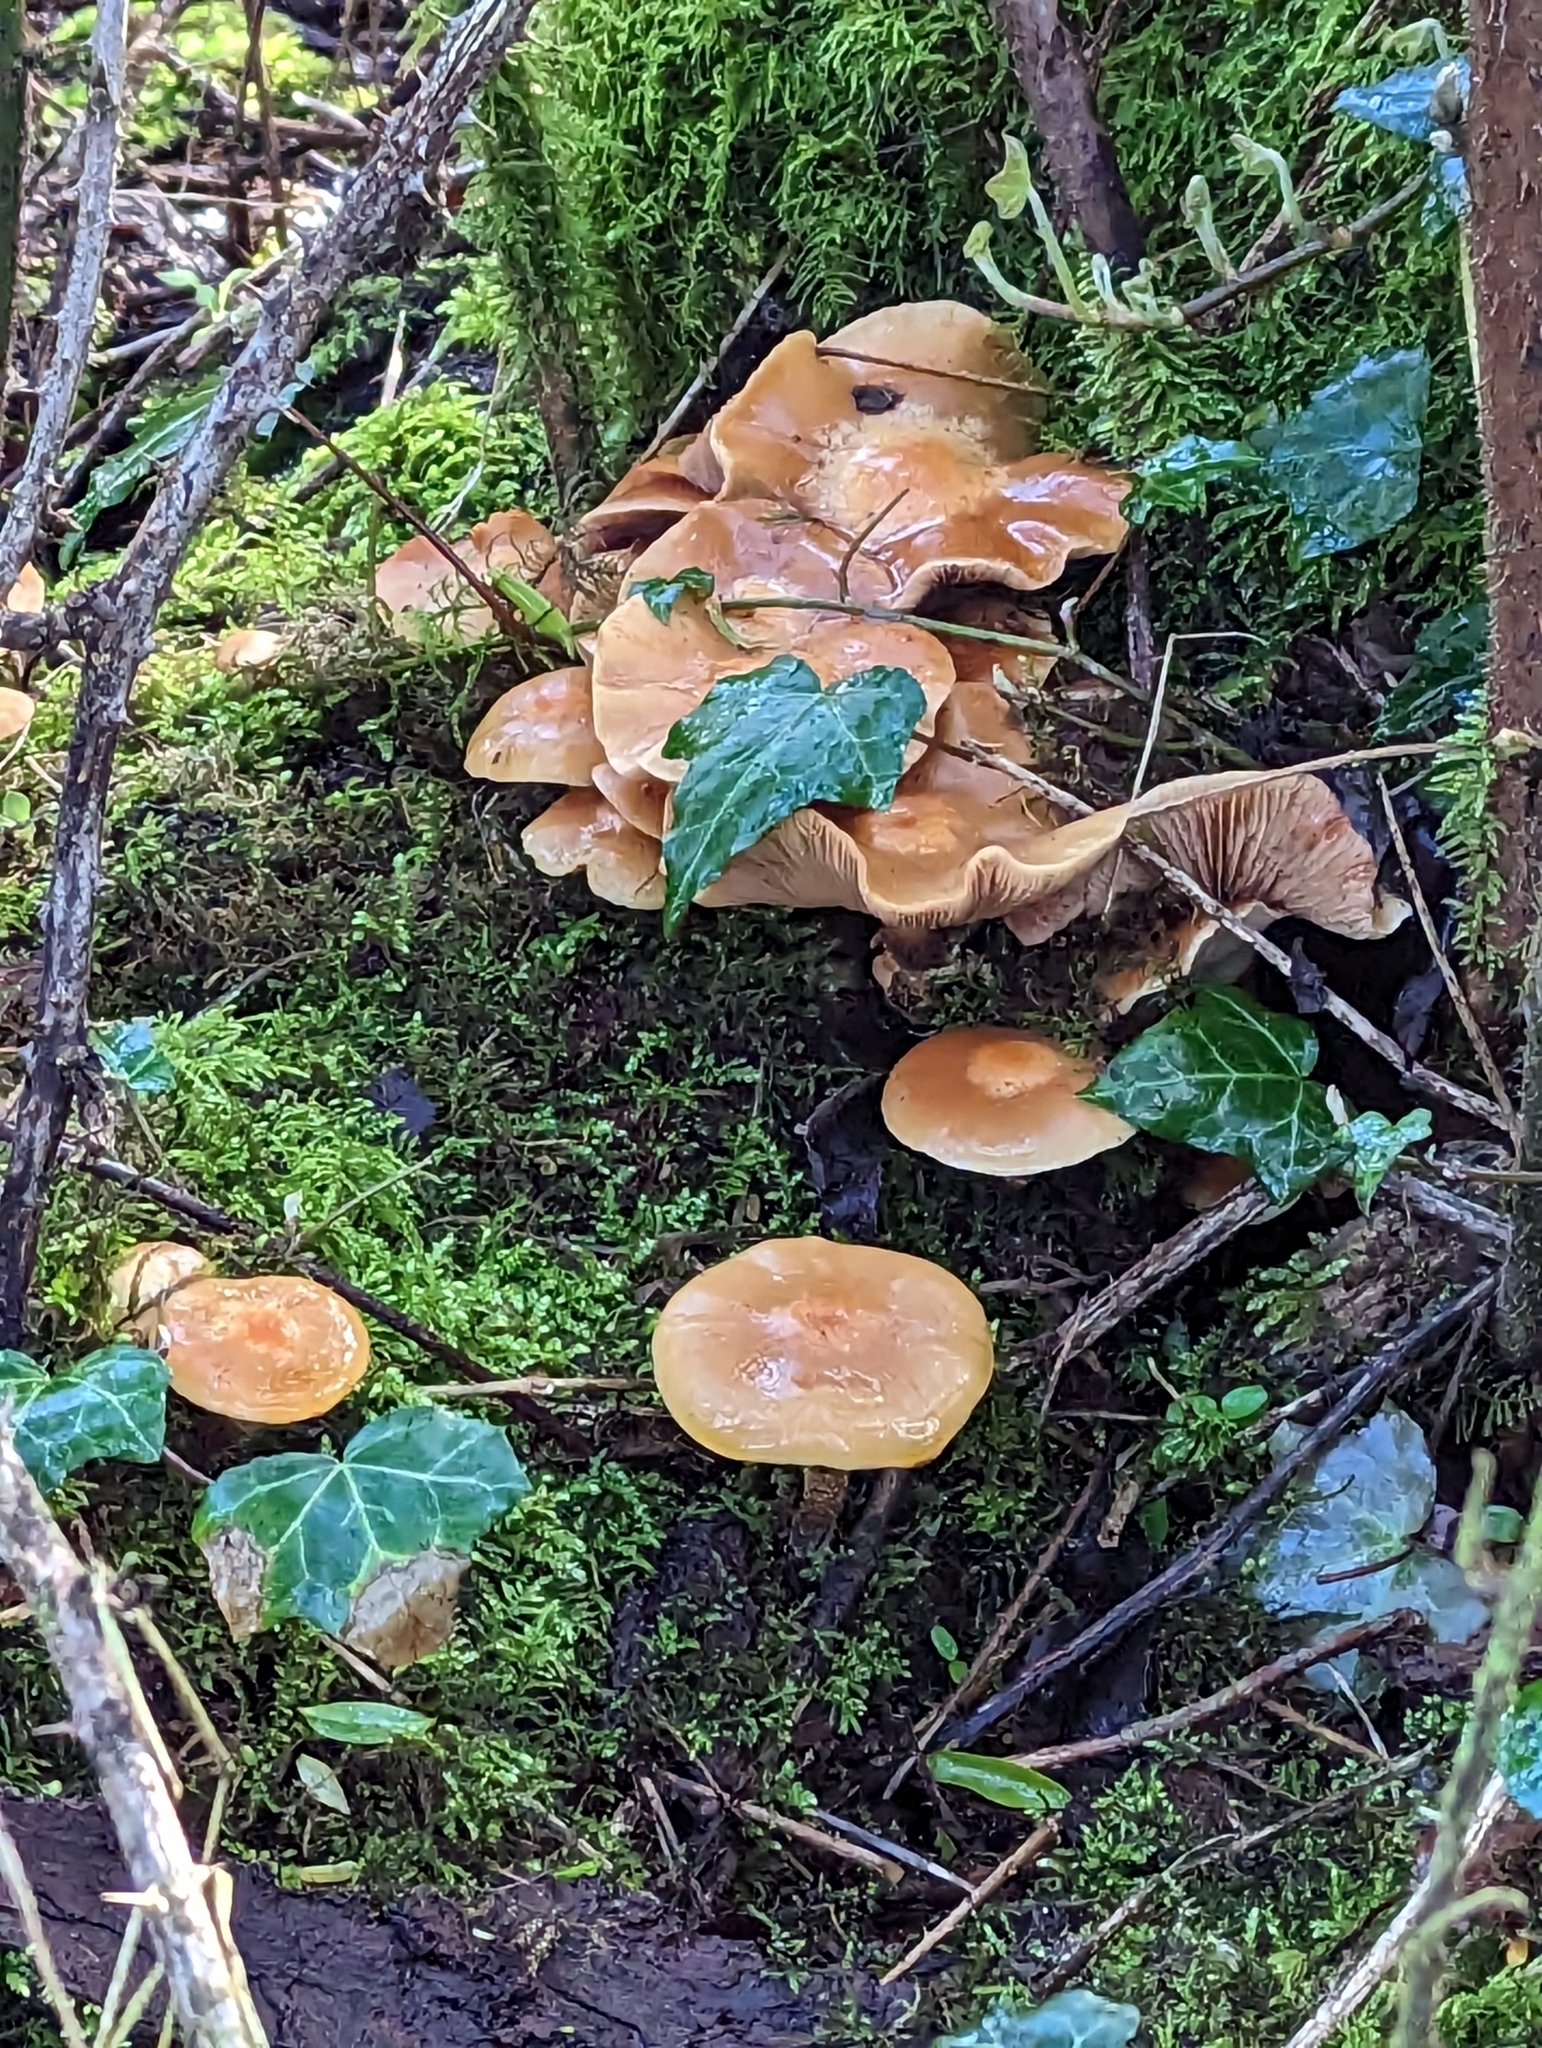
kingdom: Fungi
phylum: Basidiomycota
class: Agaricomycetes
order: Agaricales
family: Strophariaceae
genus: Kuehneromyces
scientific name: Kuehneromyces mutabilis
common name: Sheathed woodtuft
